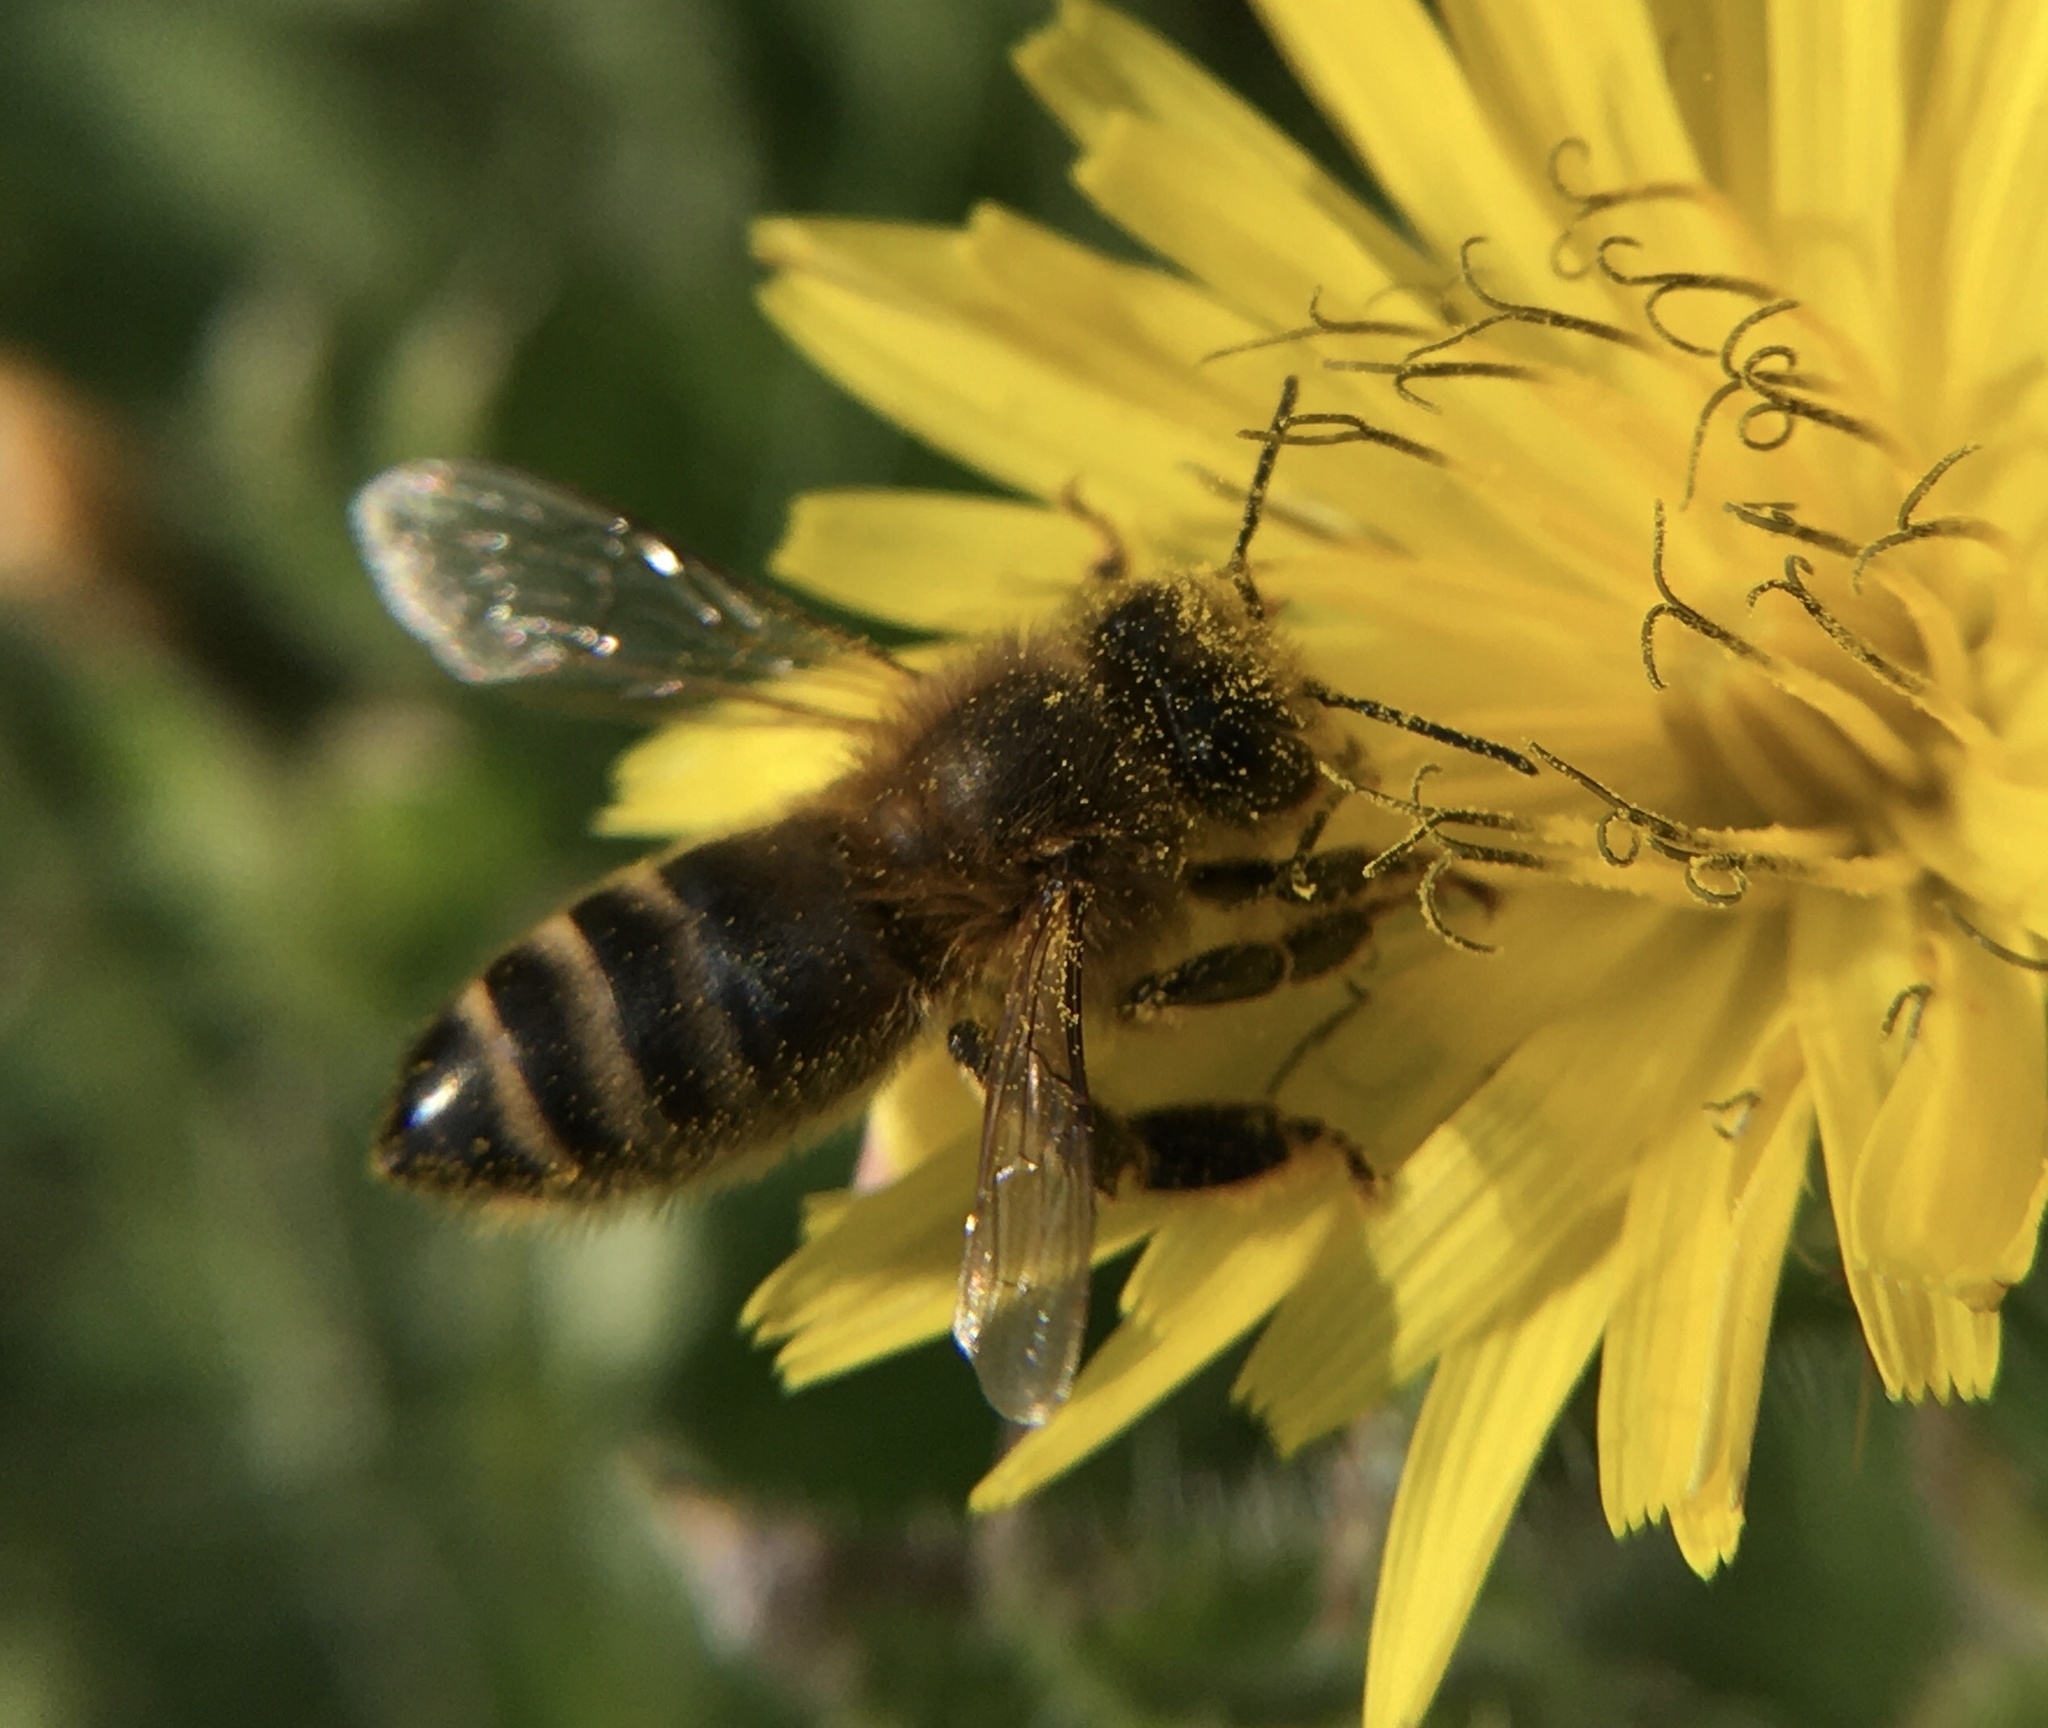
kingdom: Animalia
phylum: Arthropoda
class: Insecta
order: Hymenoptera
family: Apidae
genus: Apis
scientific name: Apis mellifera
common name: Honey bee
